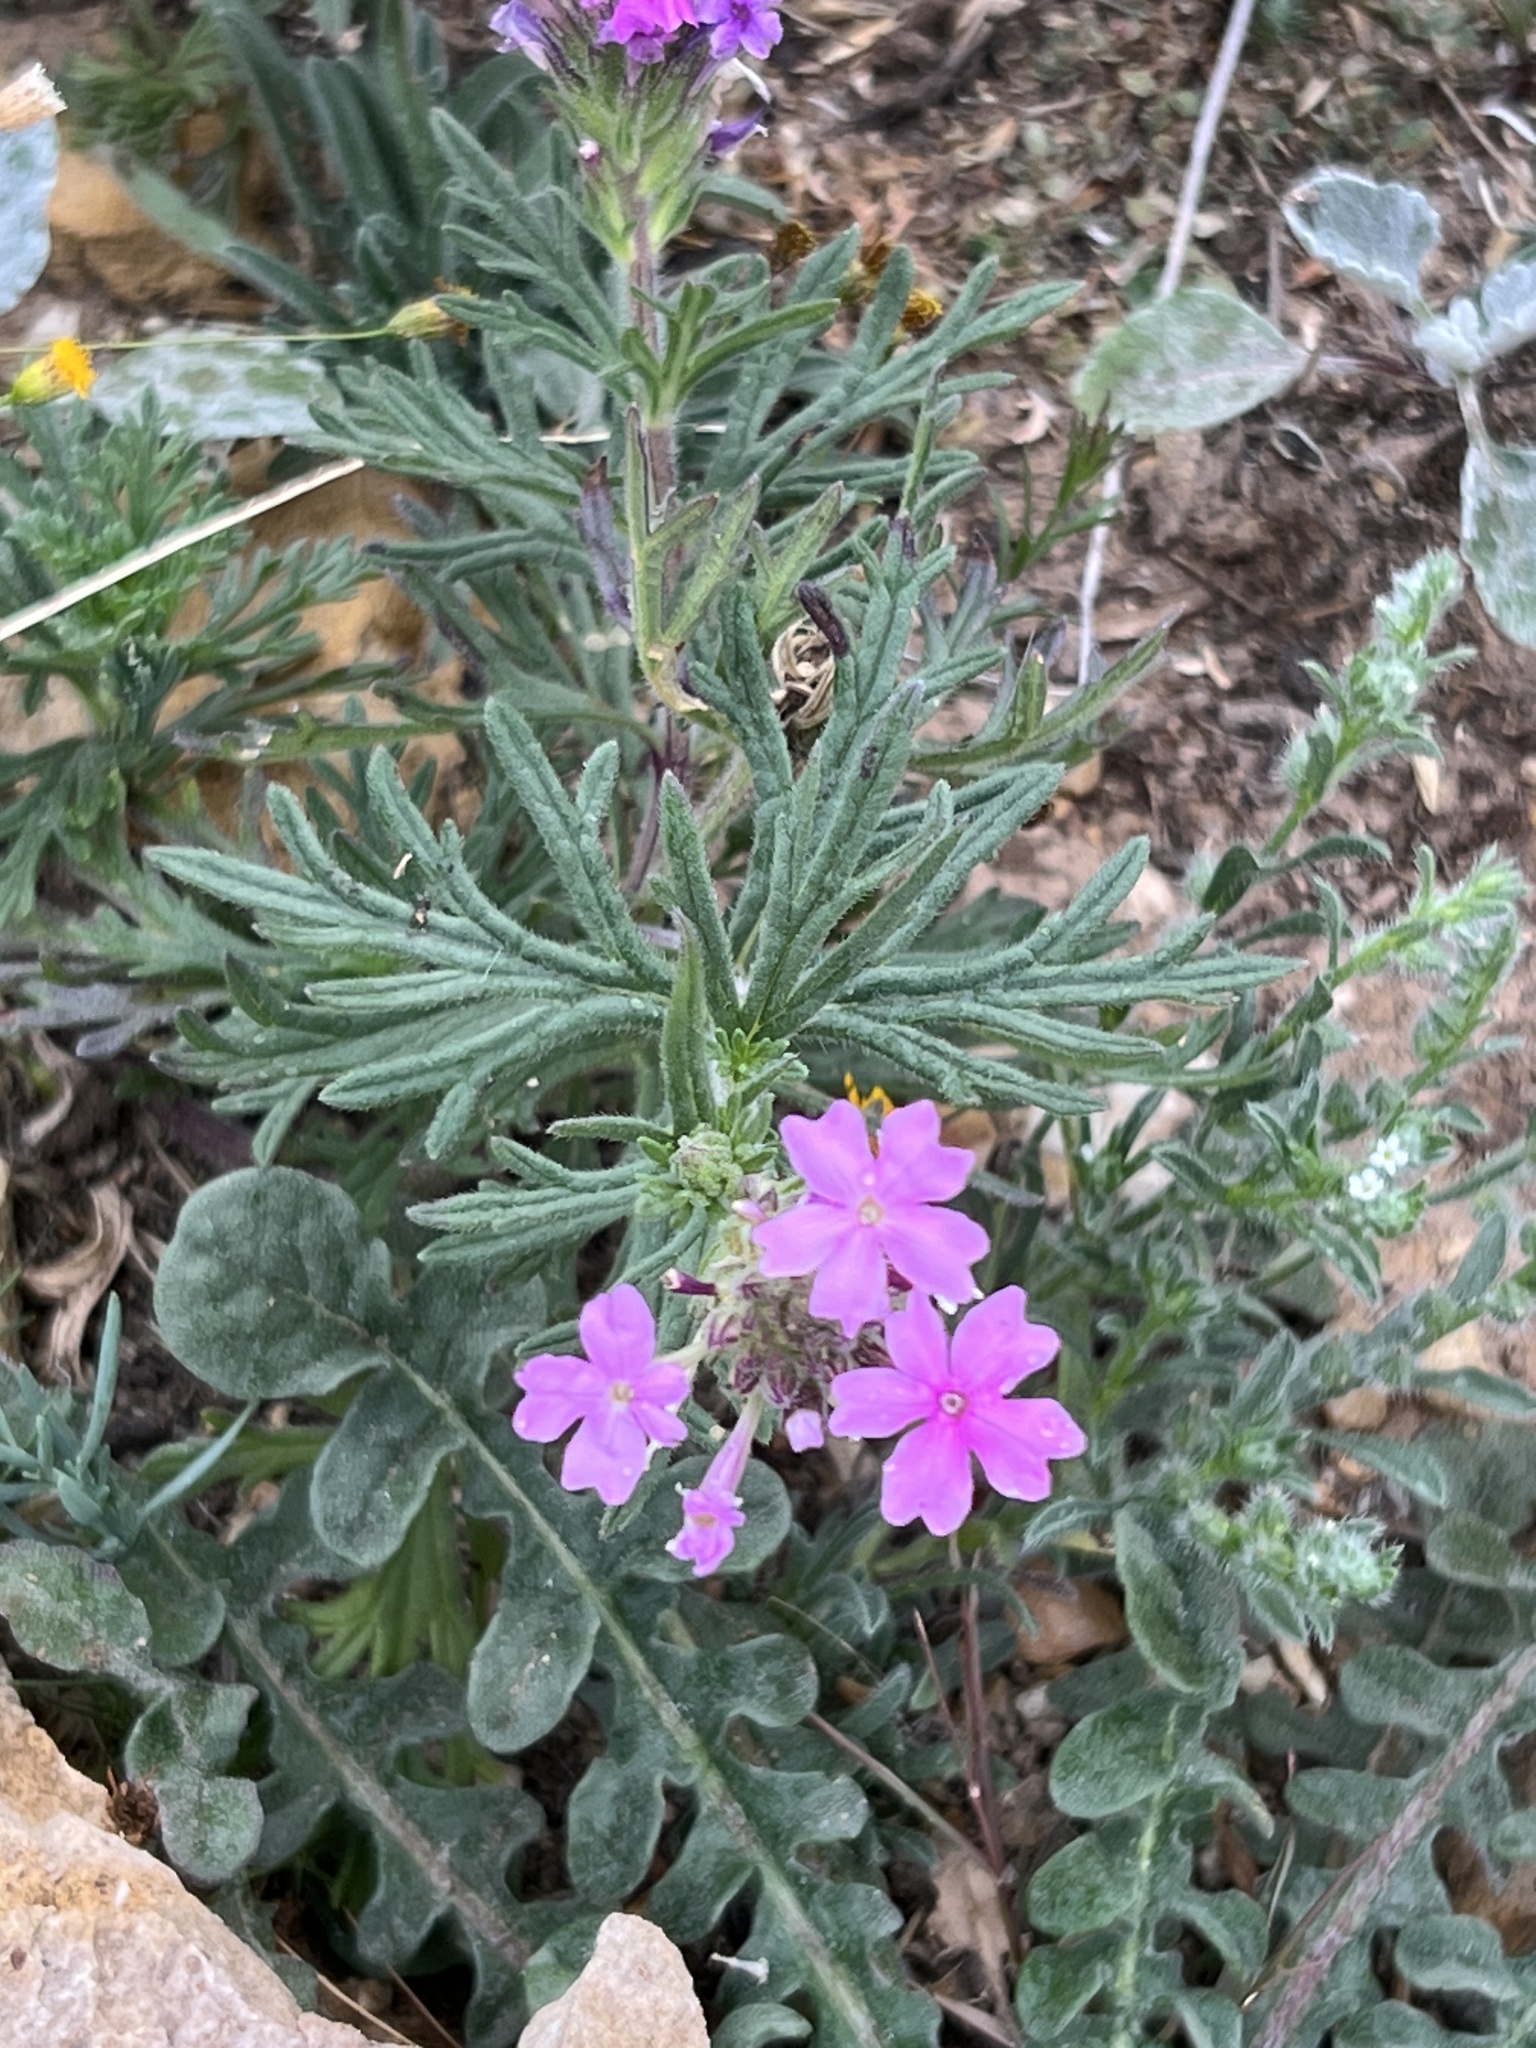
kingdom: Plantae
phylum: Tracheophyta
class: Magnoliopsida
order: Lamiales
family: Verbenaceae
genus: Verbena
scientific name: Verbena bipinnatifida
